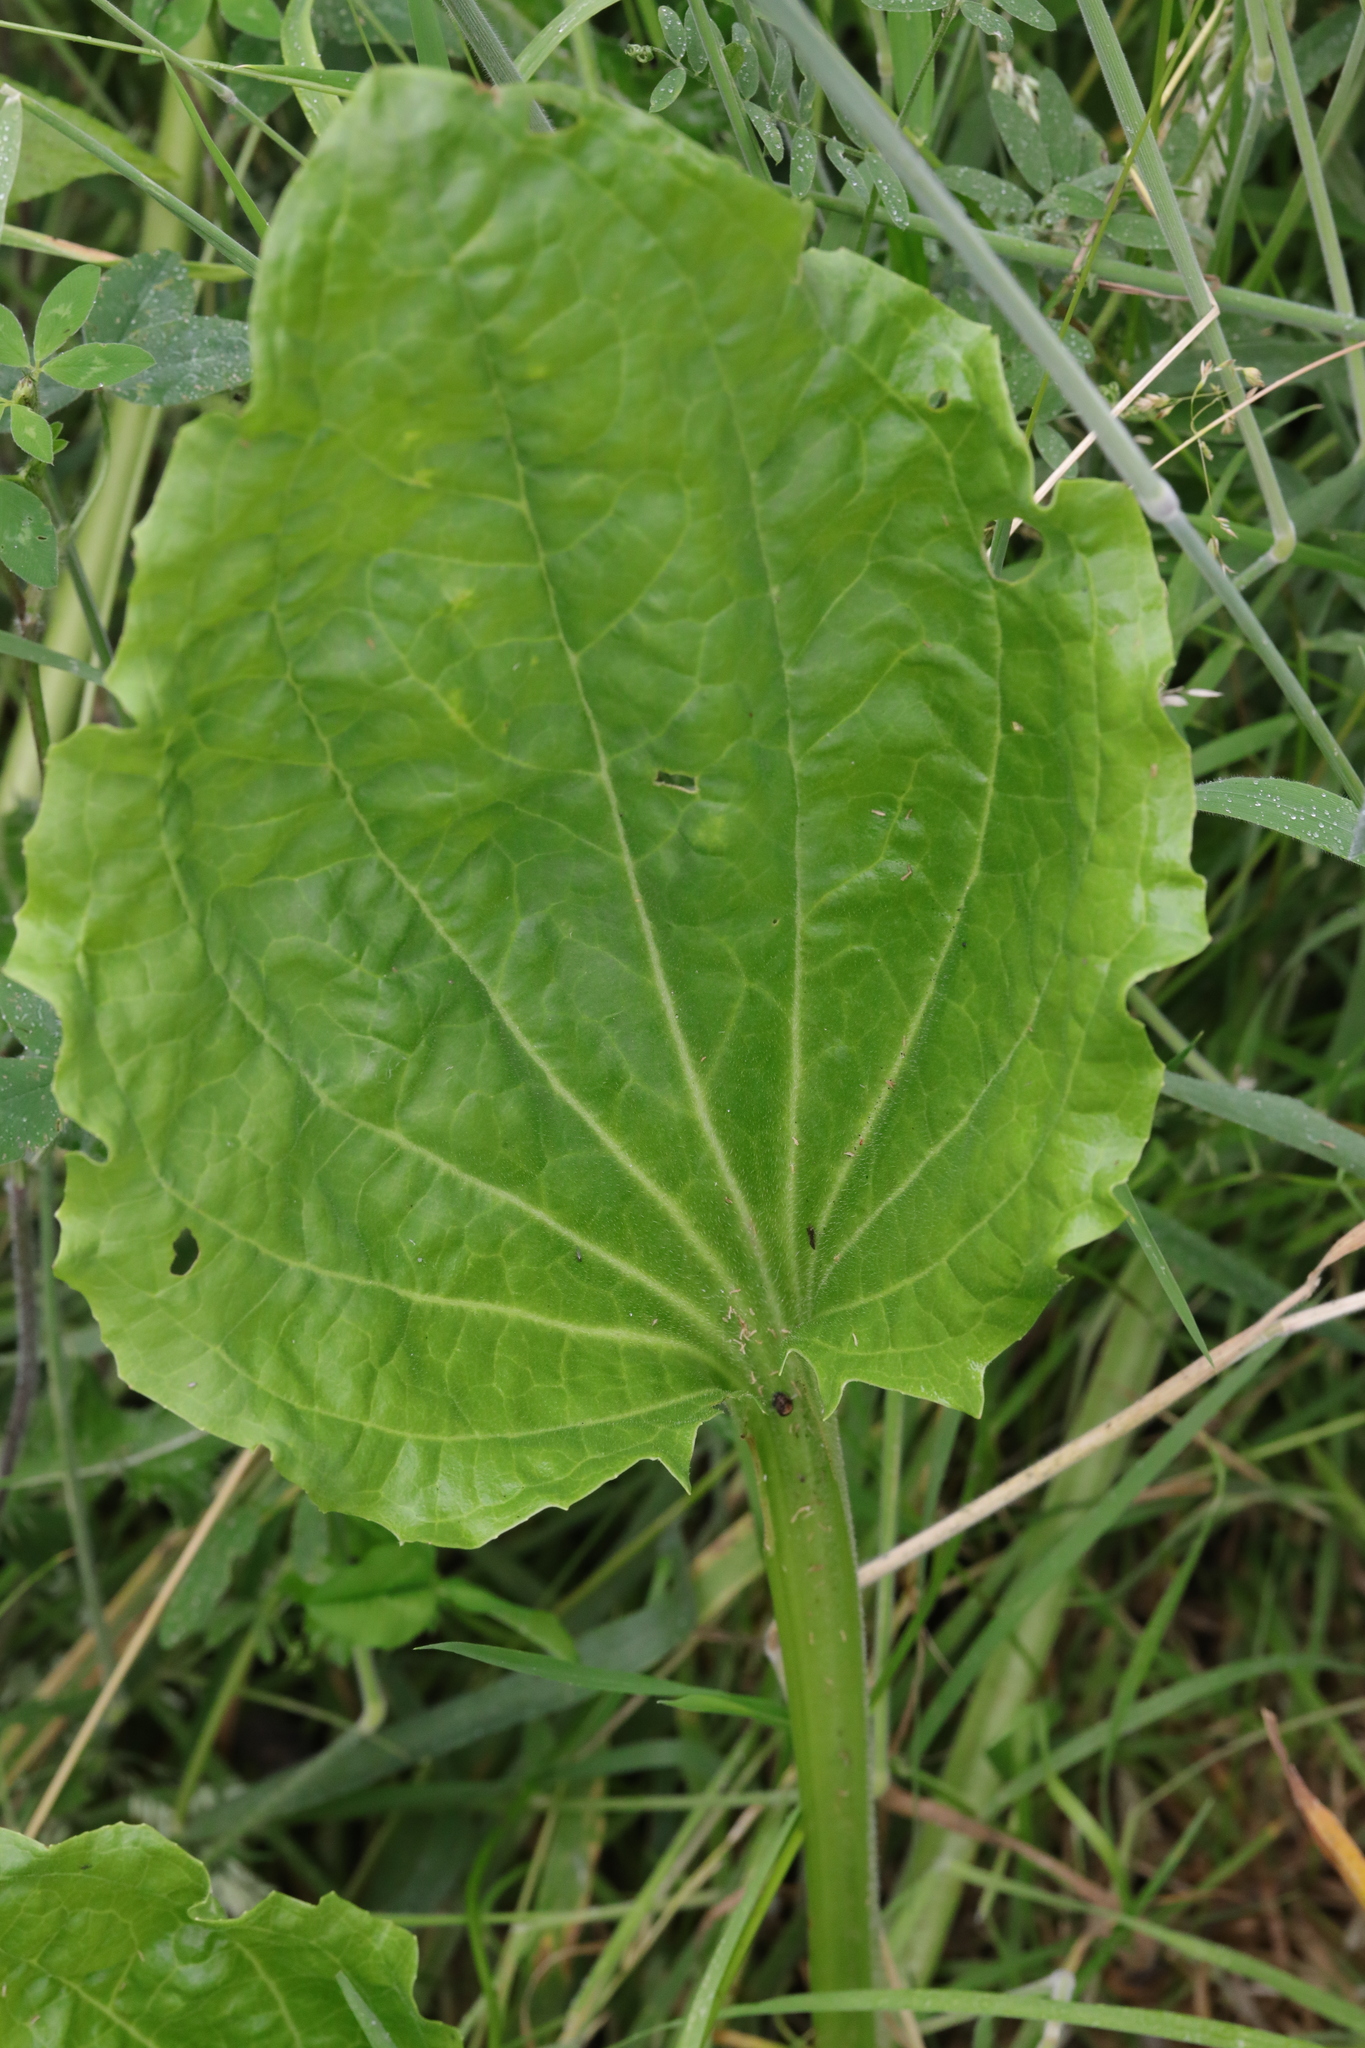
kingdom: Plantae
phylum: Tracheophyta
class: Magnoliopsida
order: Lamiales
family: Plantaginaceae
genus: Plantago
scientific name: Plantago major
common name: Common plantain
